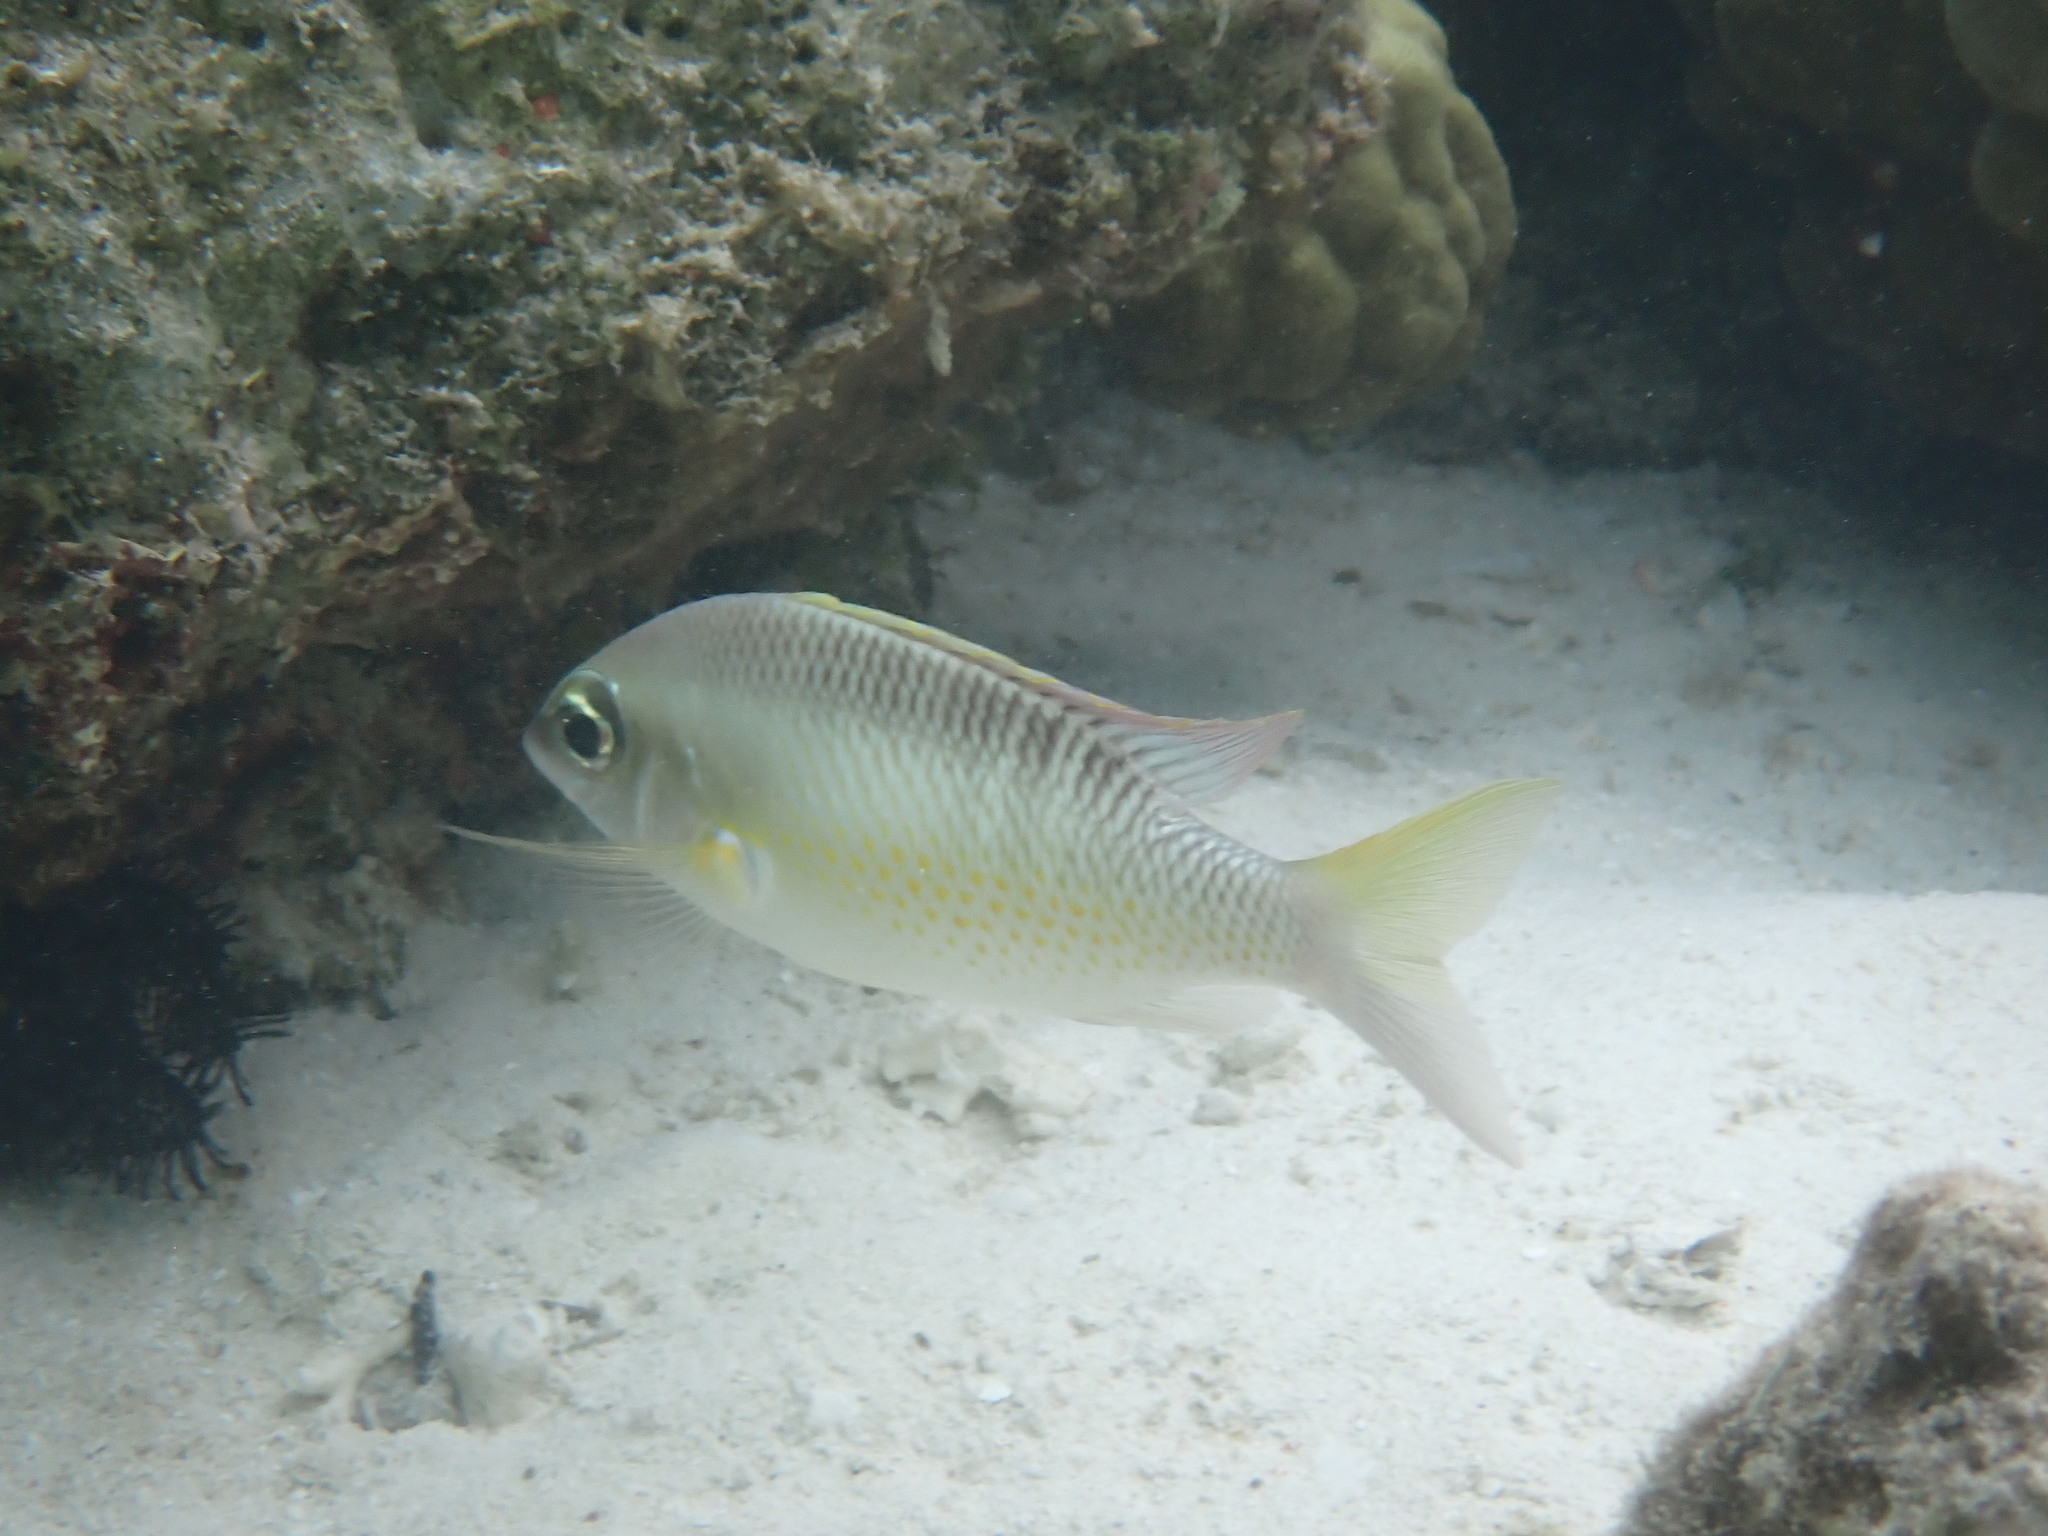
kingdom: Animalia
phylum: Chordata
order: Perciformes
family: Nemipteridae
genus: Scolopsis
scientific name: Scolopsis margaritifera
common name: Pearly monocle bream
